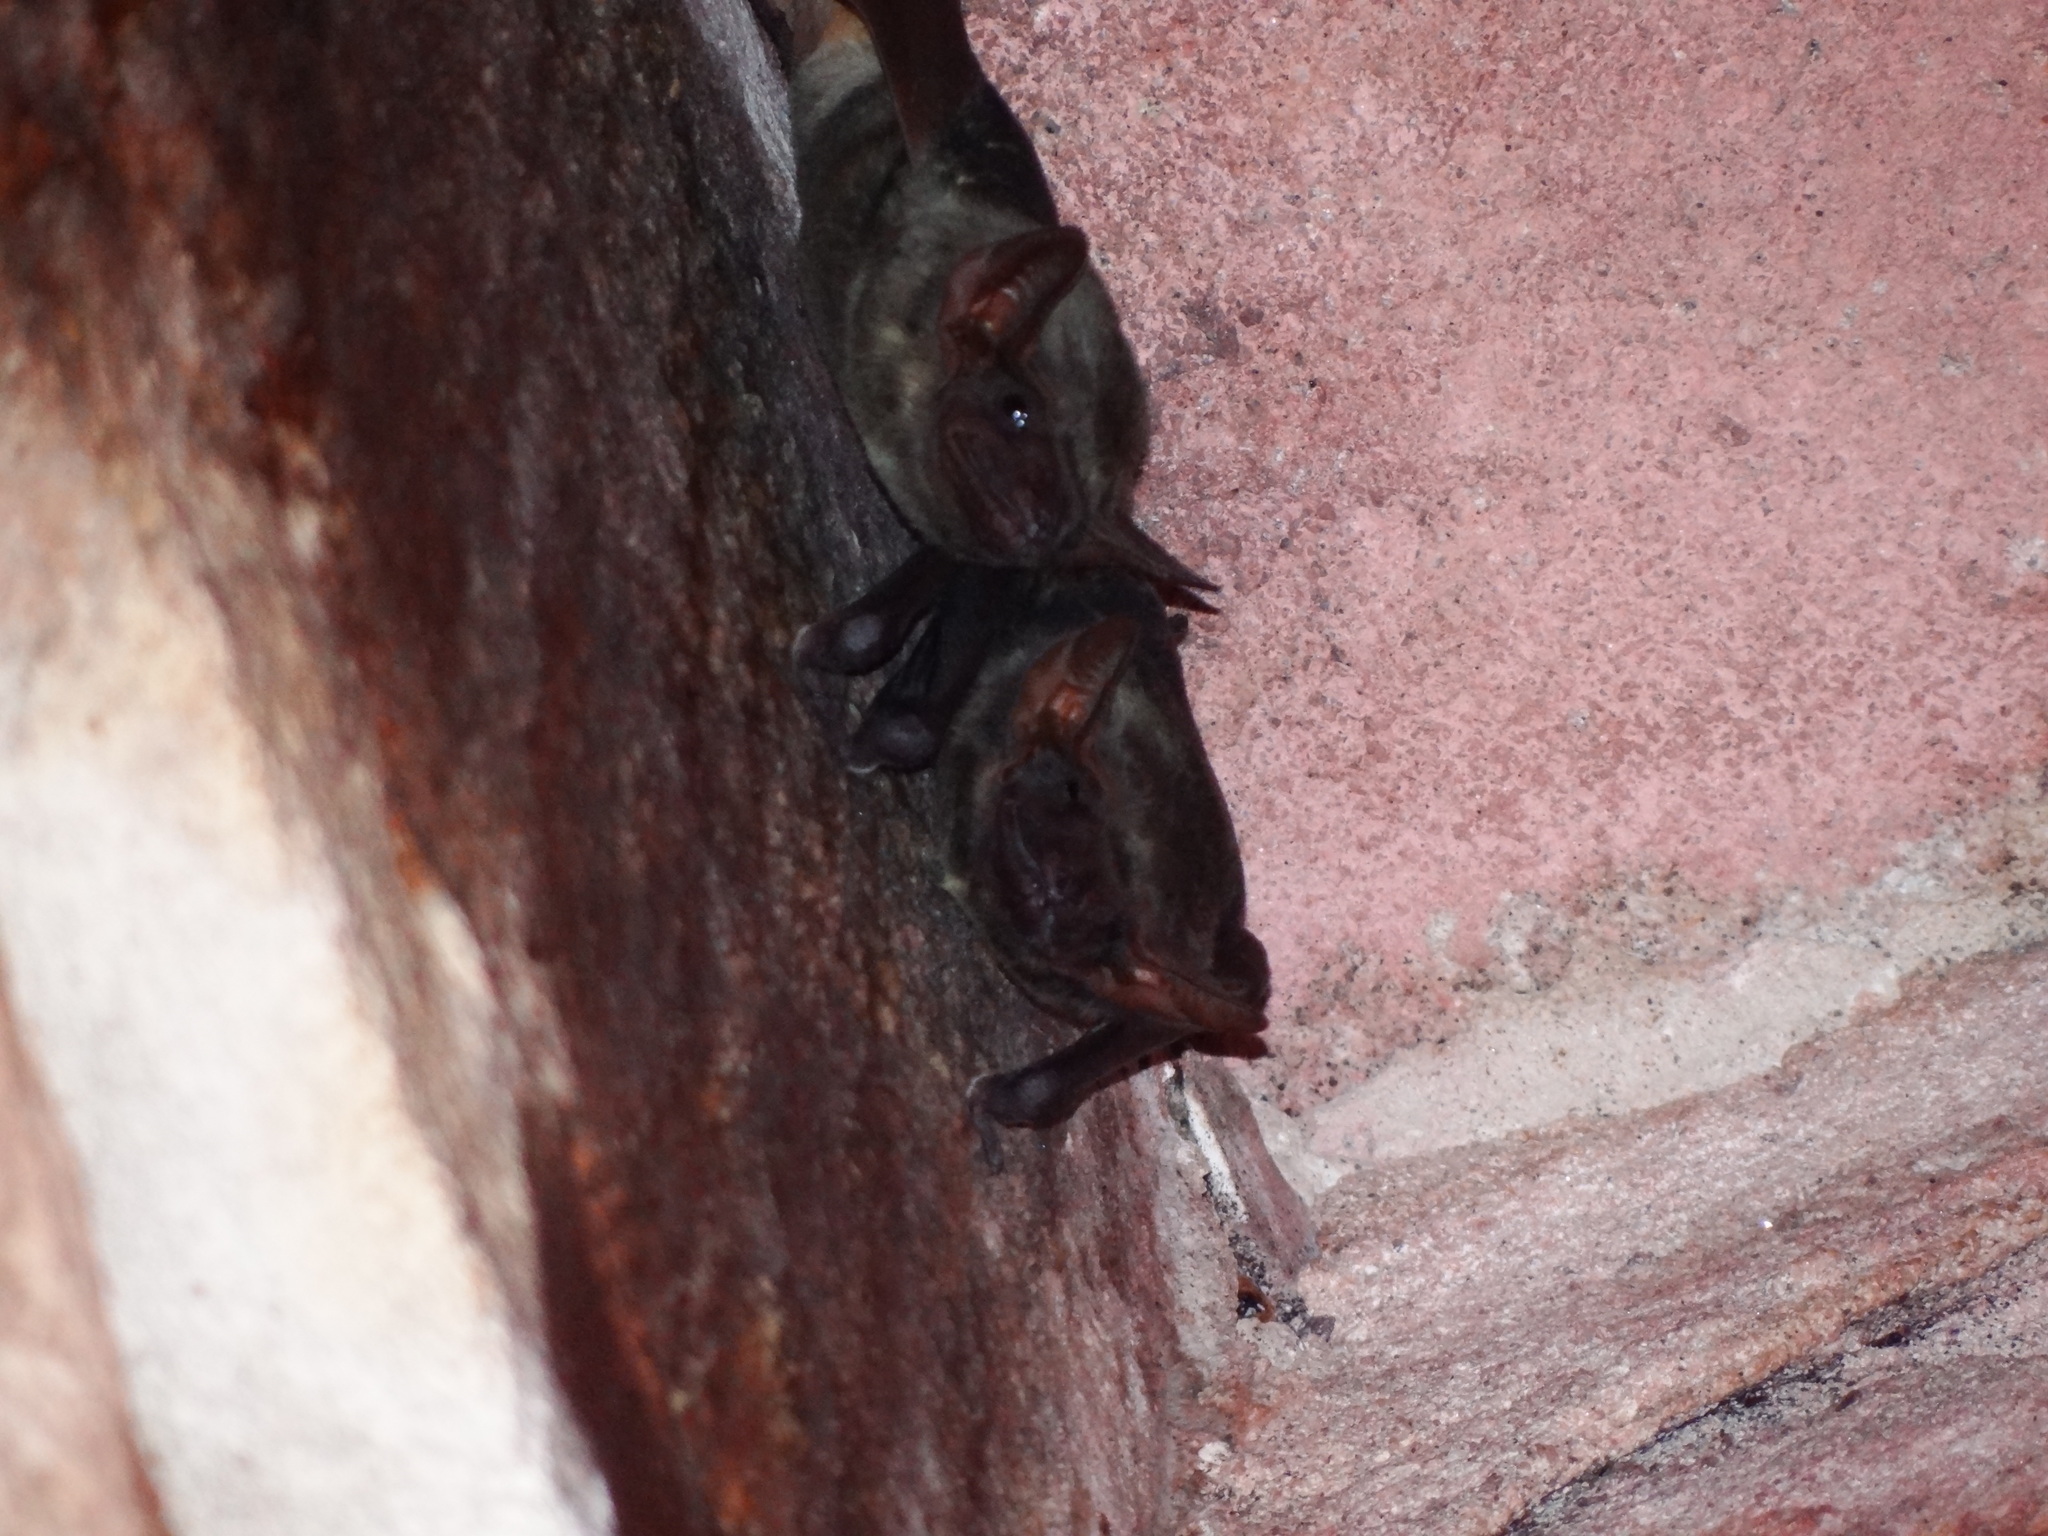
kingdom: Animalia
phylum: Chordata
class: Mammalia
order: Chiroptera
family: Emballonuridae
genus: Taphozous
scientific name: Taphozous nudiventris
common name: Naked-rumped tomb bat
